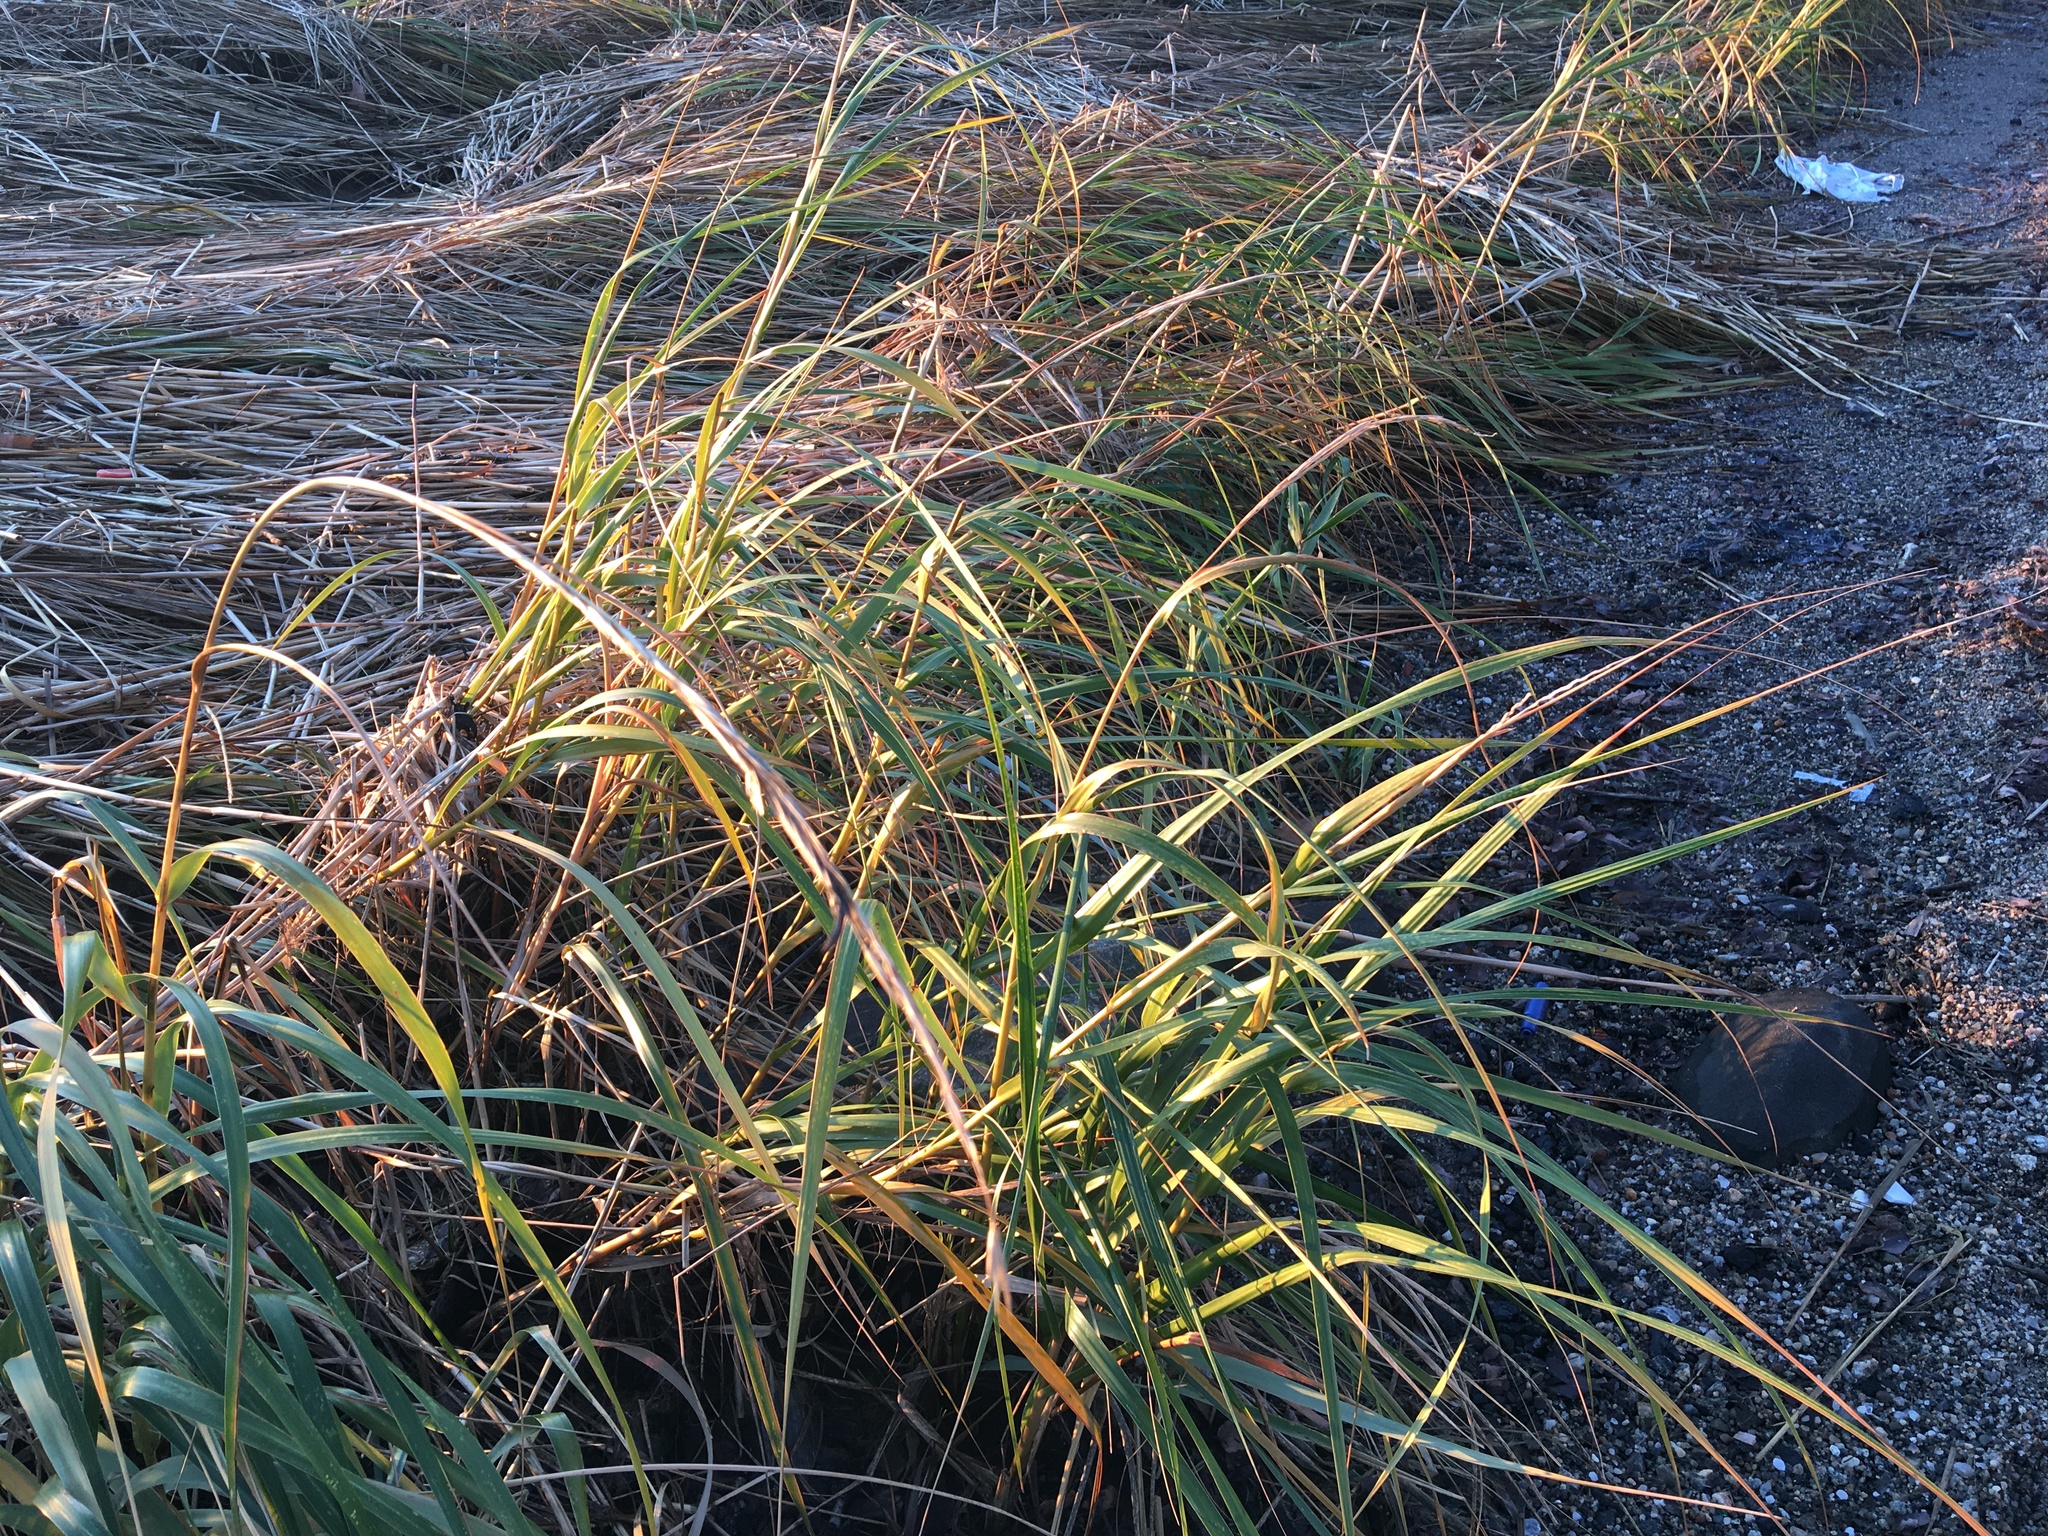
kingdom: Plantae
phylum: Tracheophyta
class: Liliopsida
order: Poales
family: Poaceae
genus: Sporobolus
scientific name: Sporobolus alterniflorus
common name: Atlantic cordgrass
